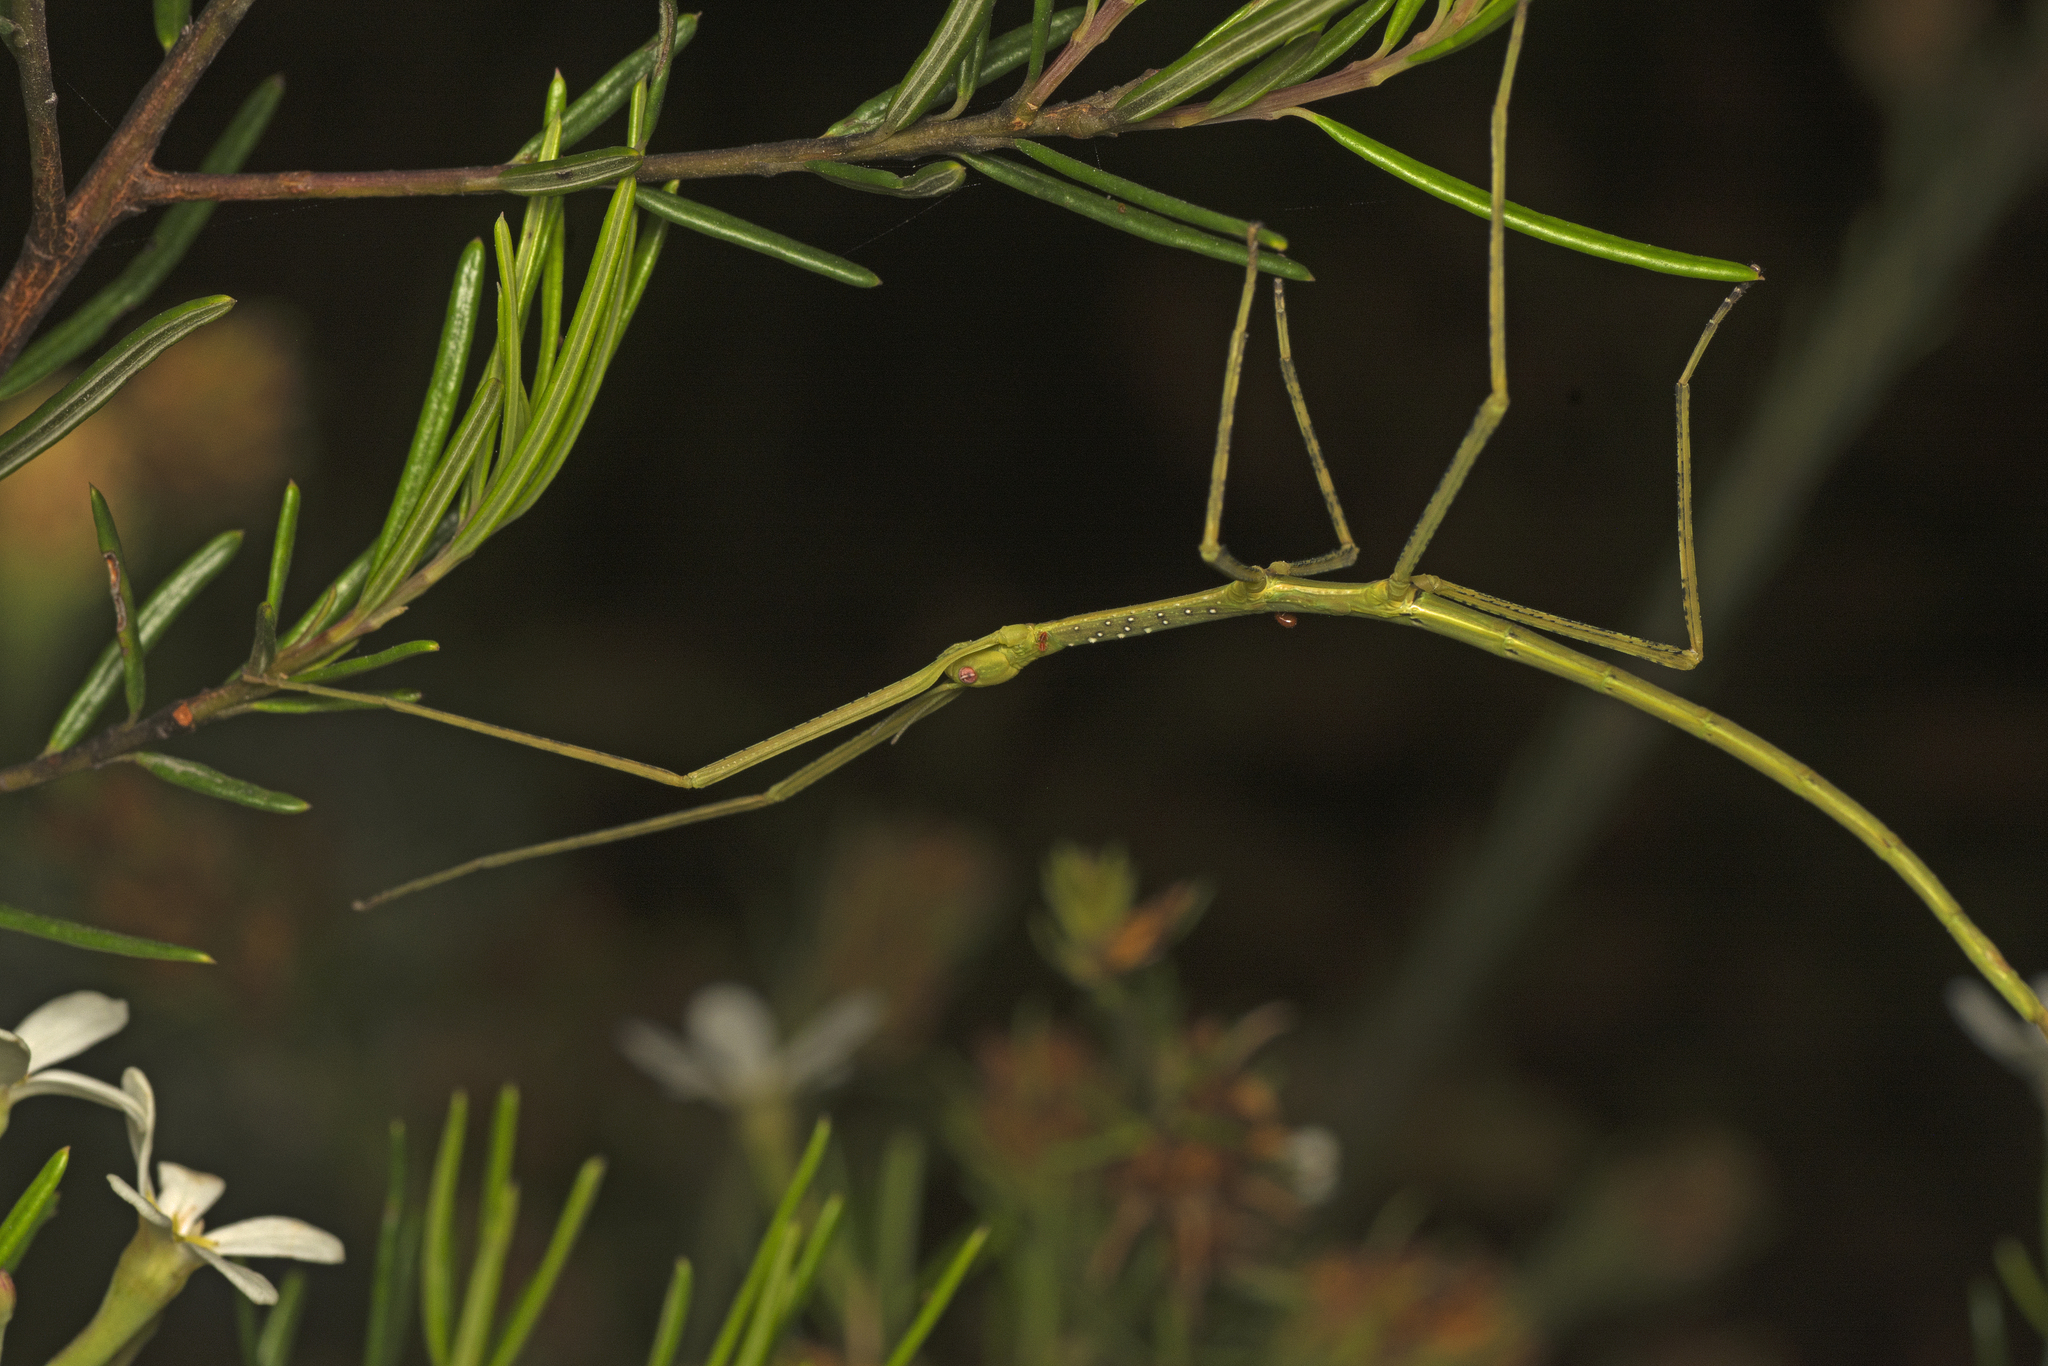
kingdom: Animalia
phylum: Arthropoda
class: Insecta
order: Phasmida
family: Phasmatidae
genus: Anchiale
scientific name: Anchiale austrotessulata
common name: Tessellated stick-insect
